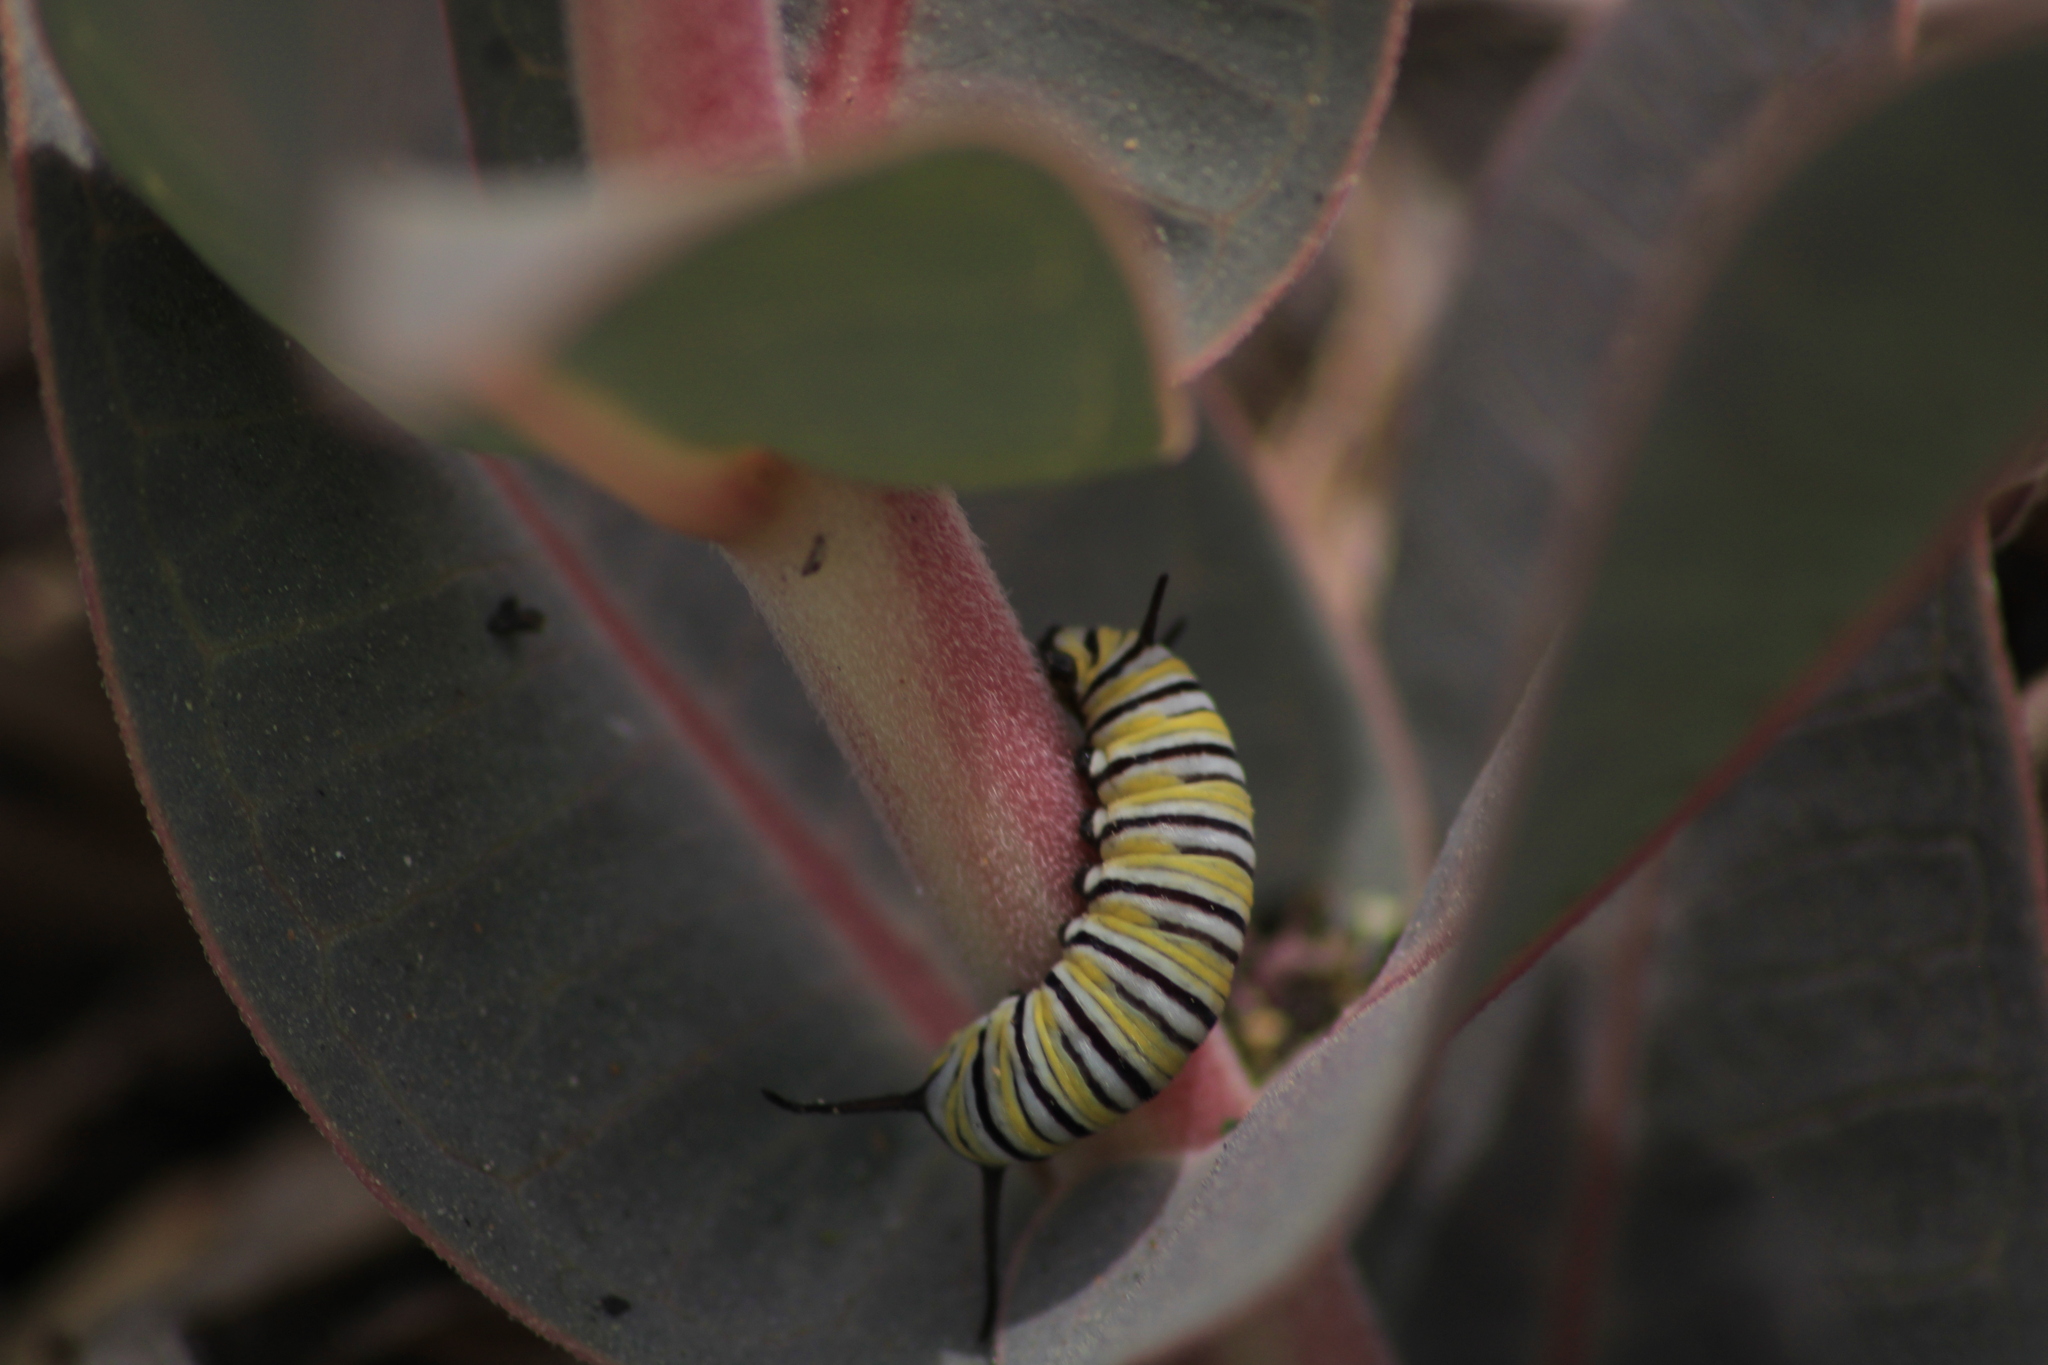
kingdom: Animalia
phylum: Arthropoda
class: Insecta
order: Lepidoptera
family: Nymphalidae
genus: Danaus
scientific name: Danaus plexippus
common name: Monarch
